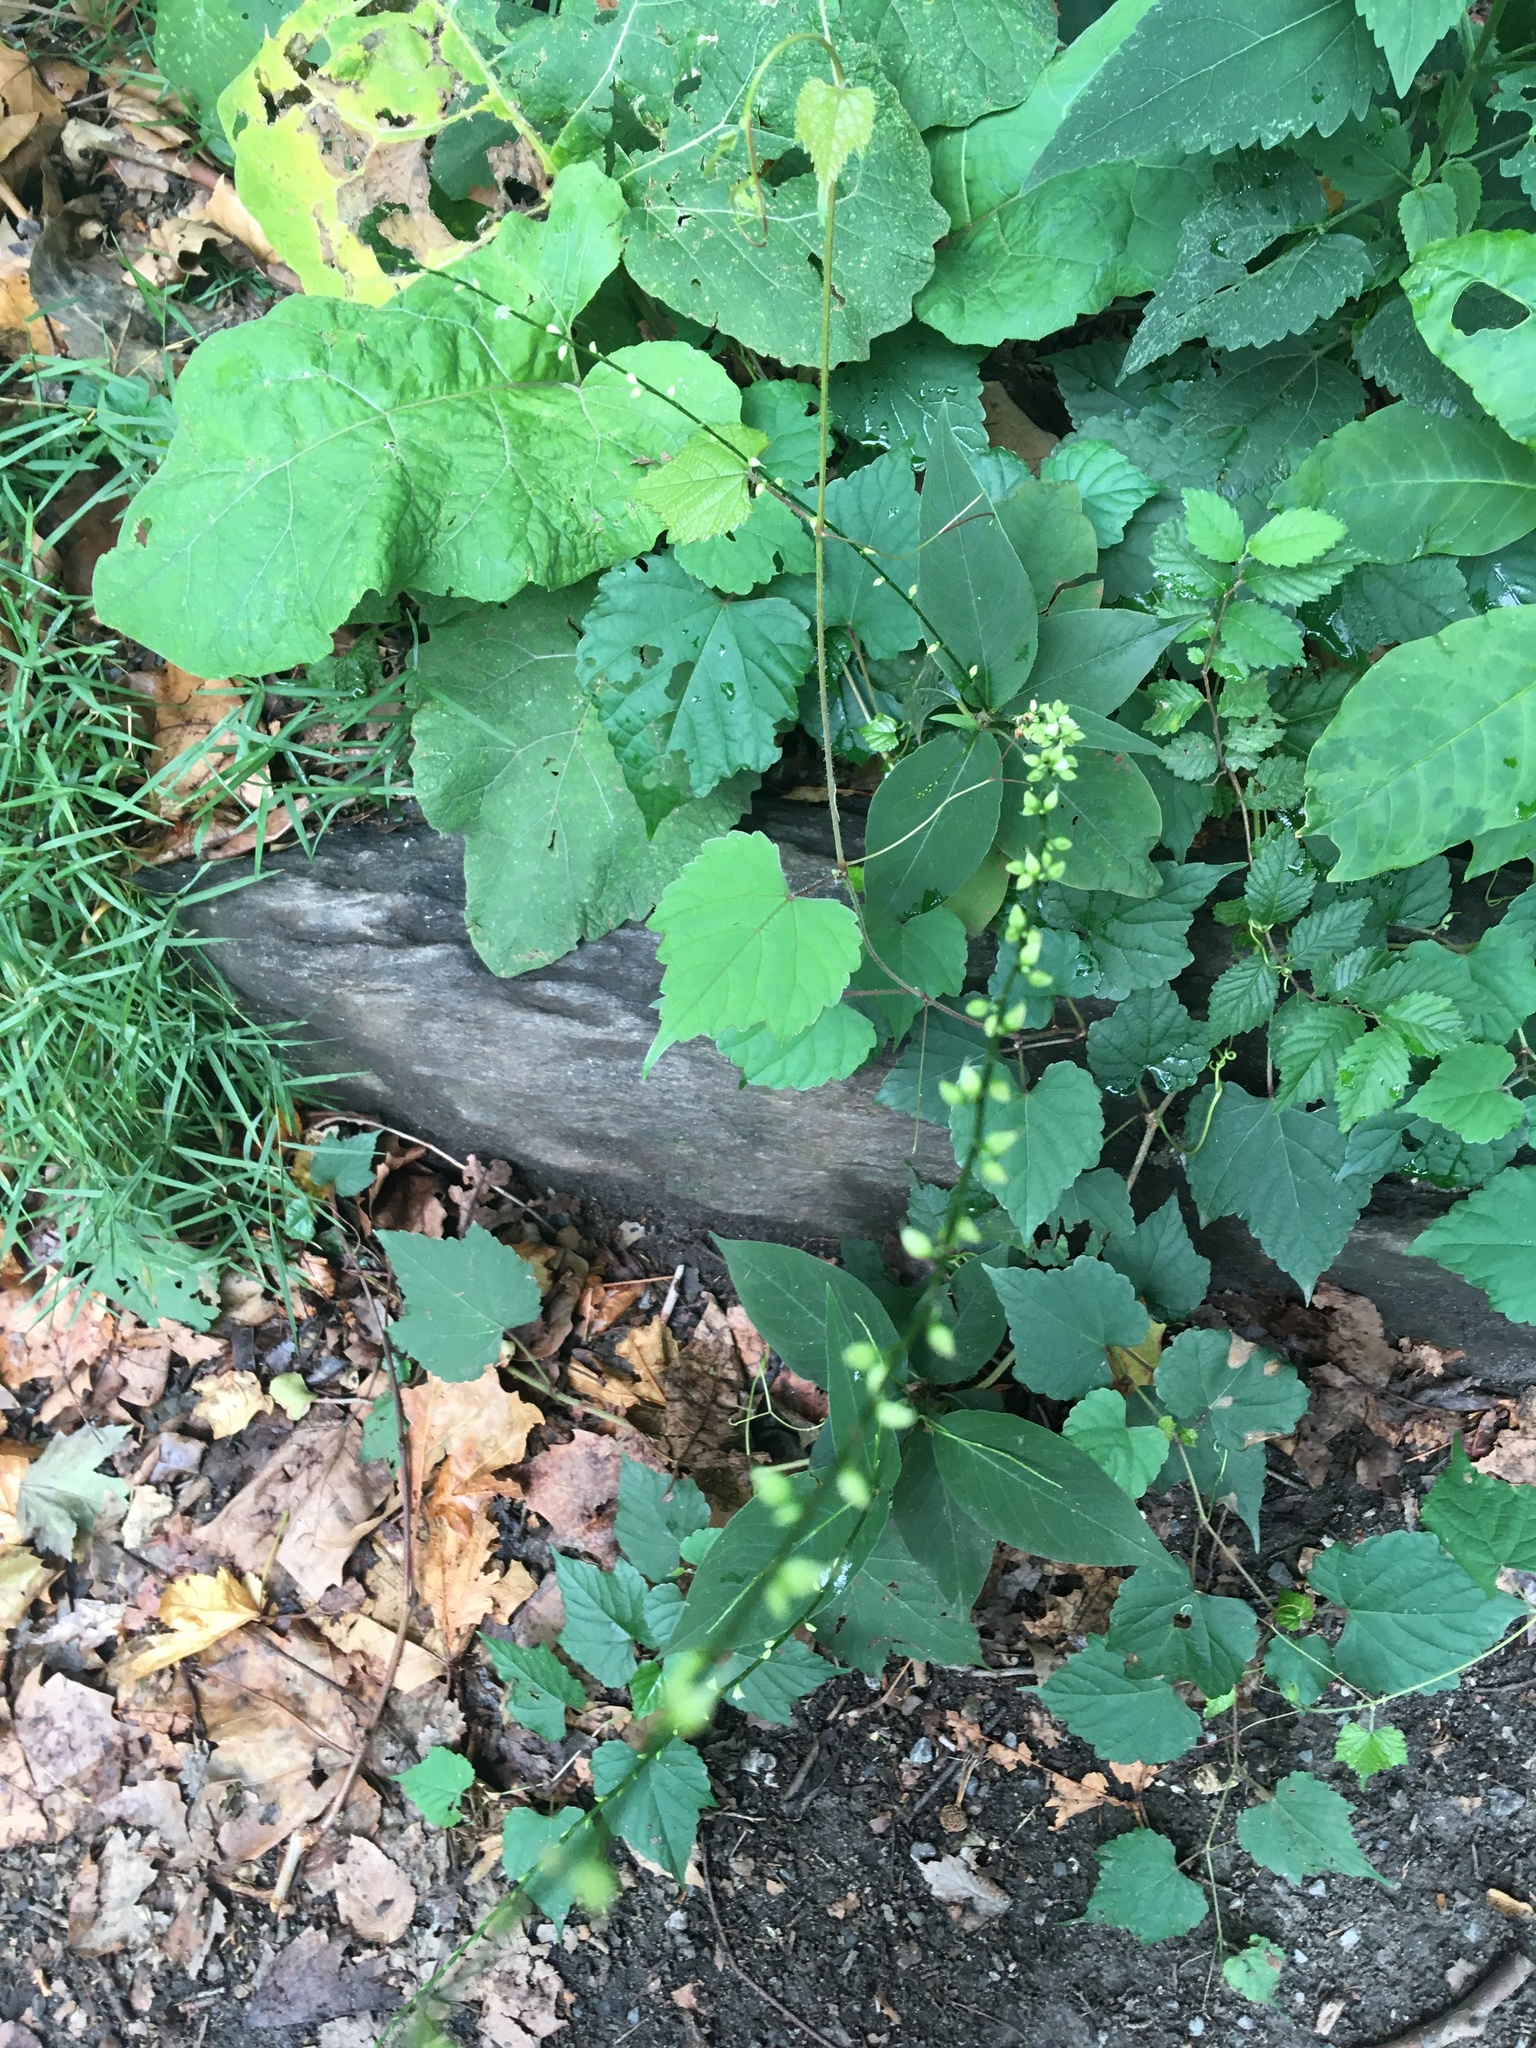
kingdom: Plantae
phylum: Tracheophyta
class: Magnoliopsida
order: Caryophyllales
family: Polygonaceae
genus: Persicaria
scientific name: Persicaria virginiana
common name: Jumpseed
